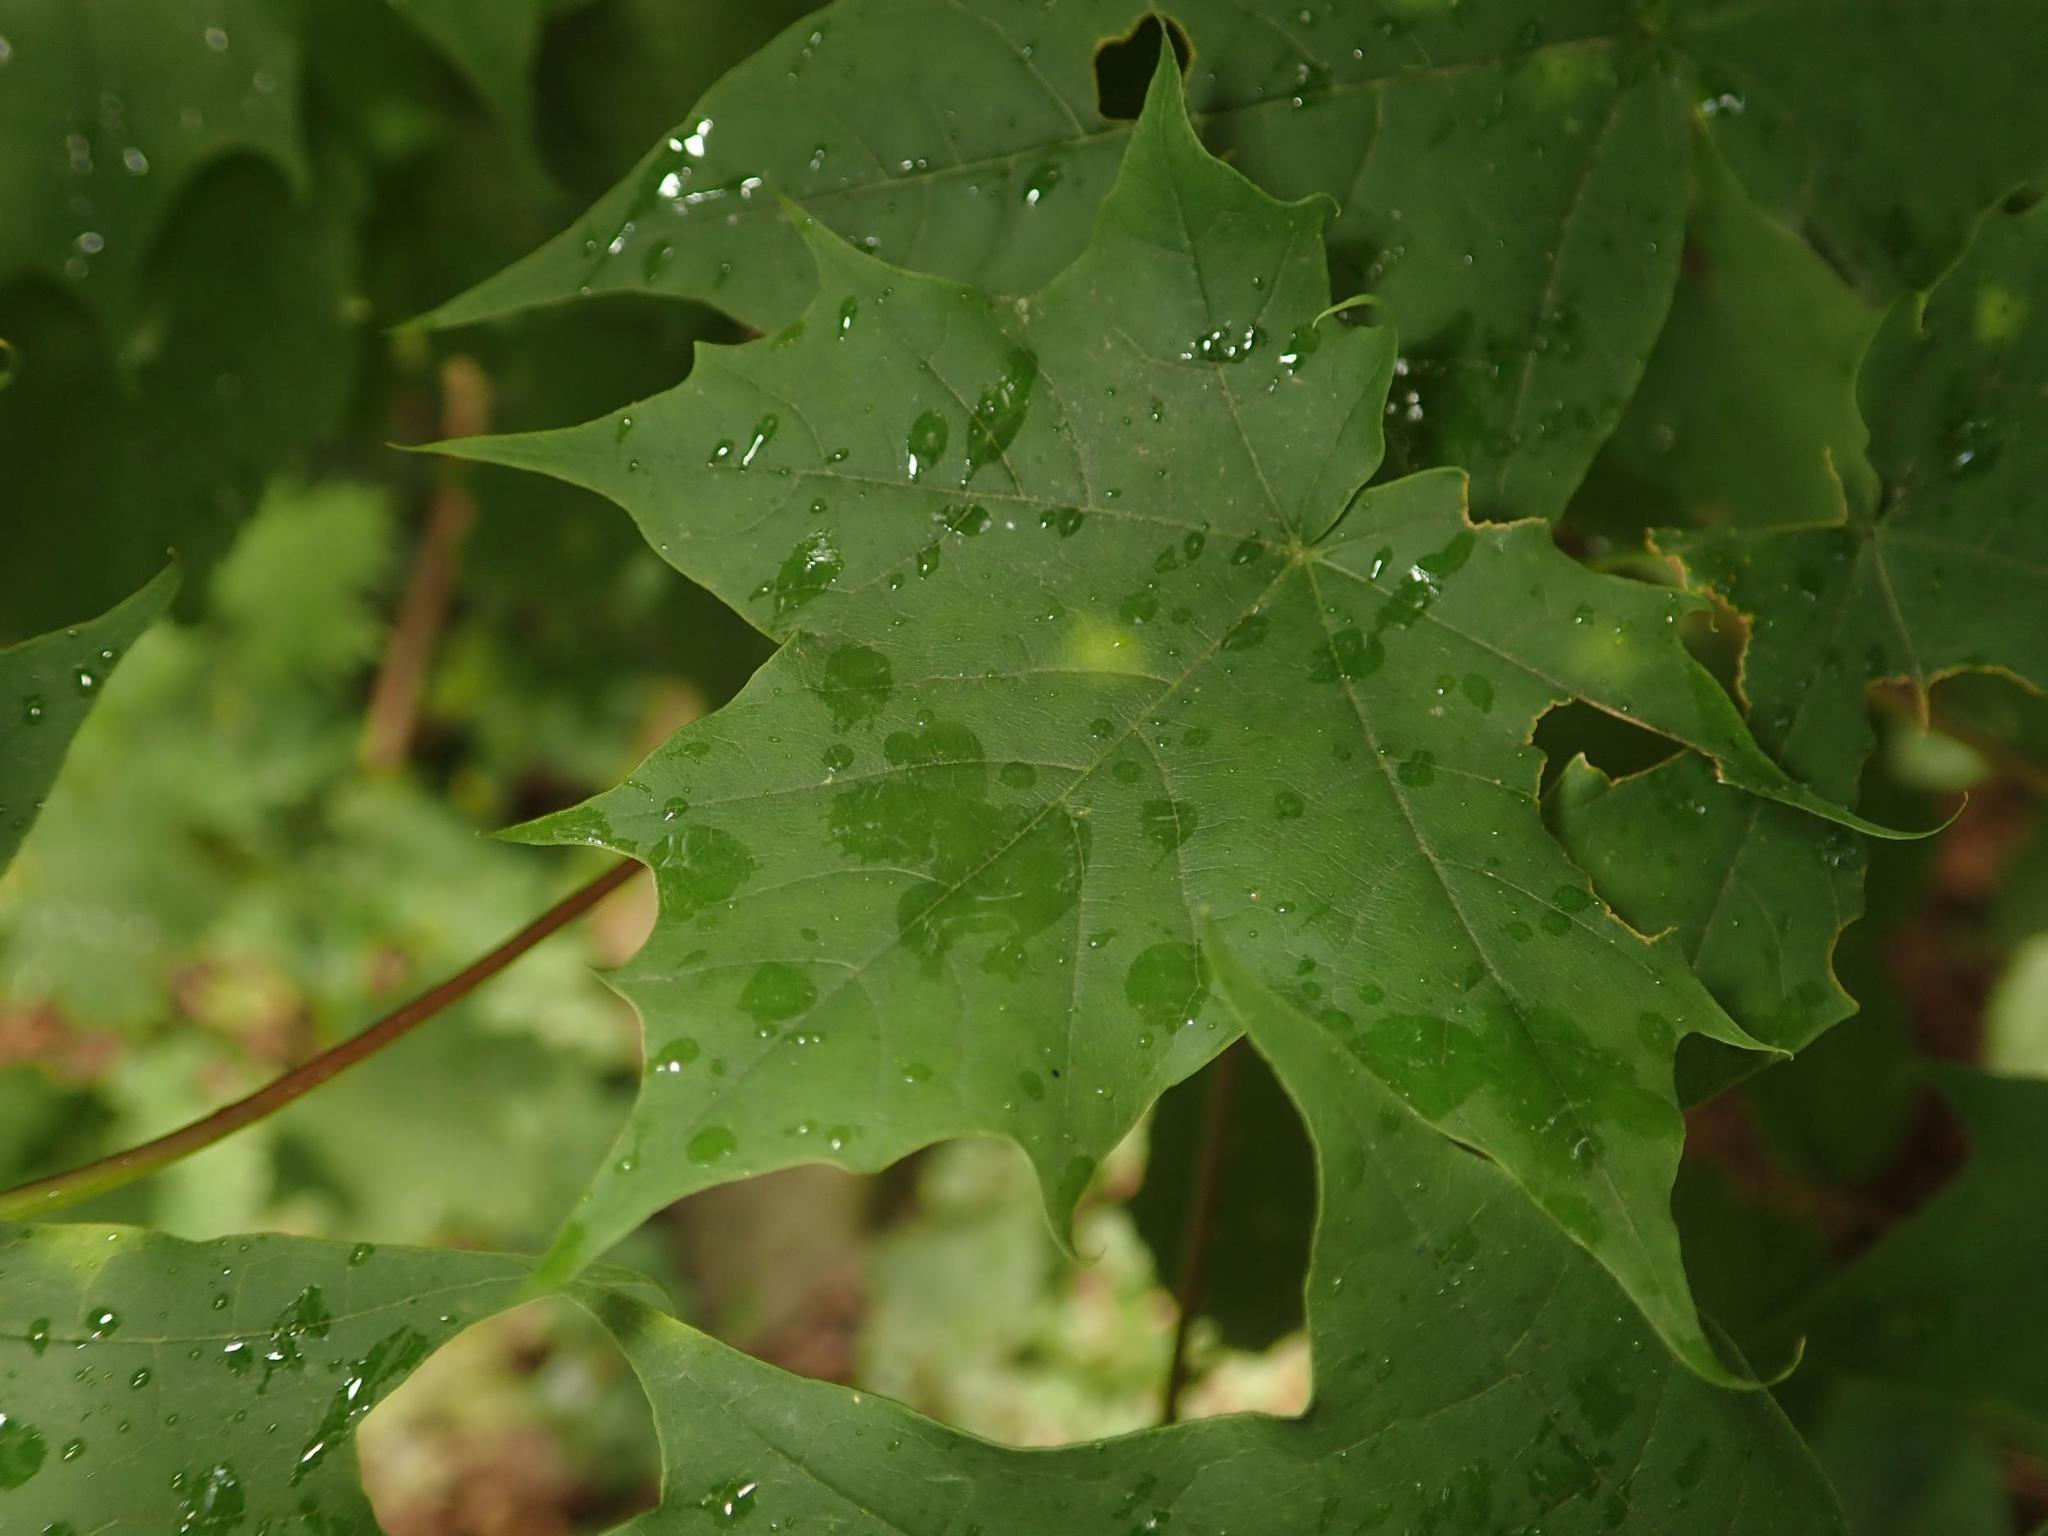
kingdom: Plantae
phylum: Tracheophyta
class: Magnoliopsida
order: Sapindales
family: Sapindaceae
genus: Acer
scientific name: Acer platanoides
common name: Norway maple
